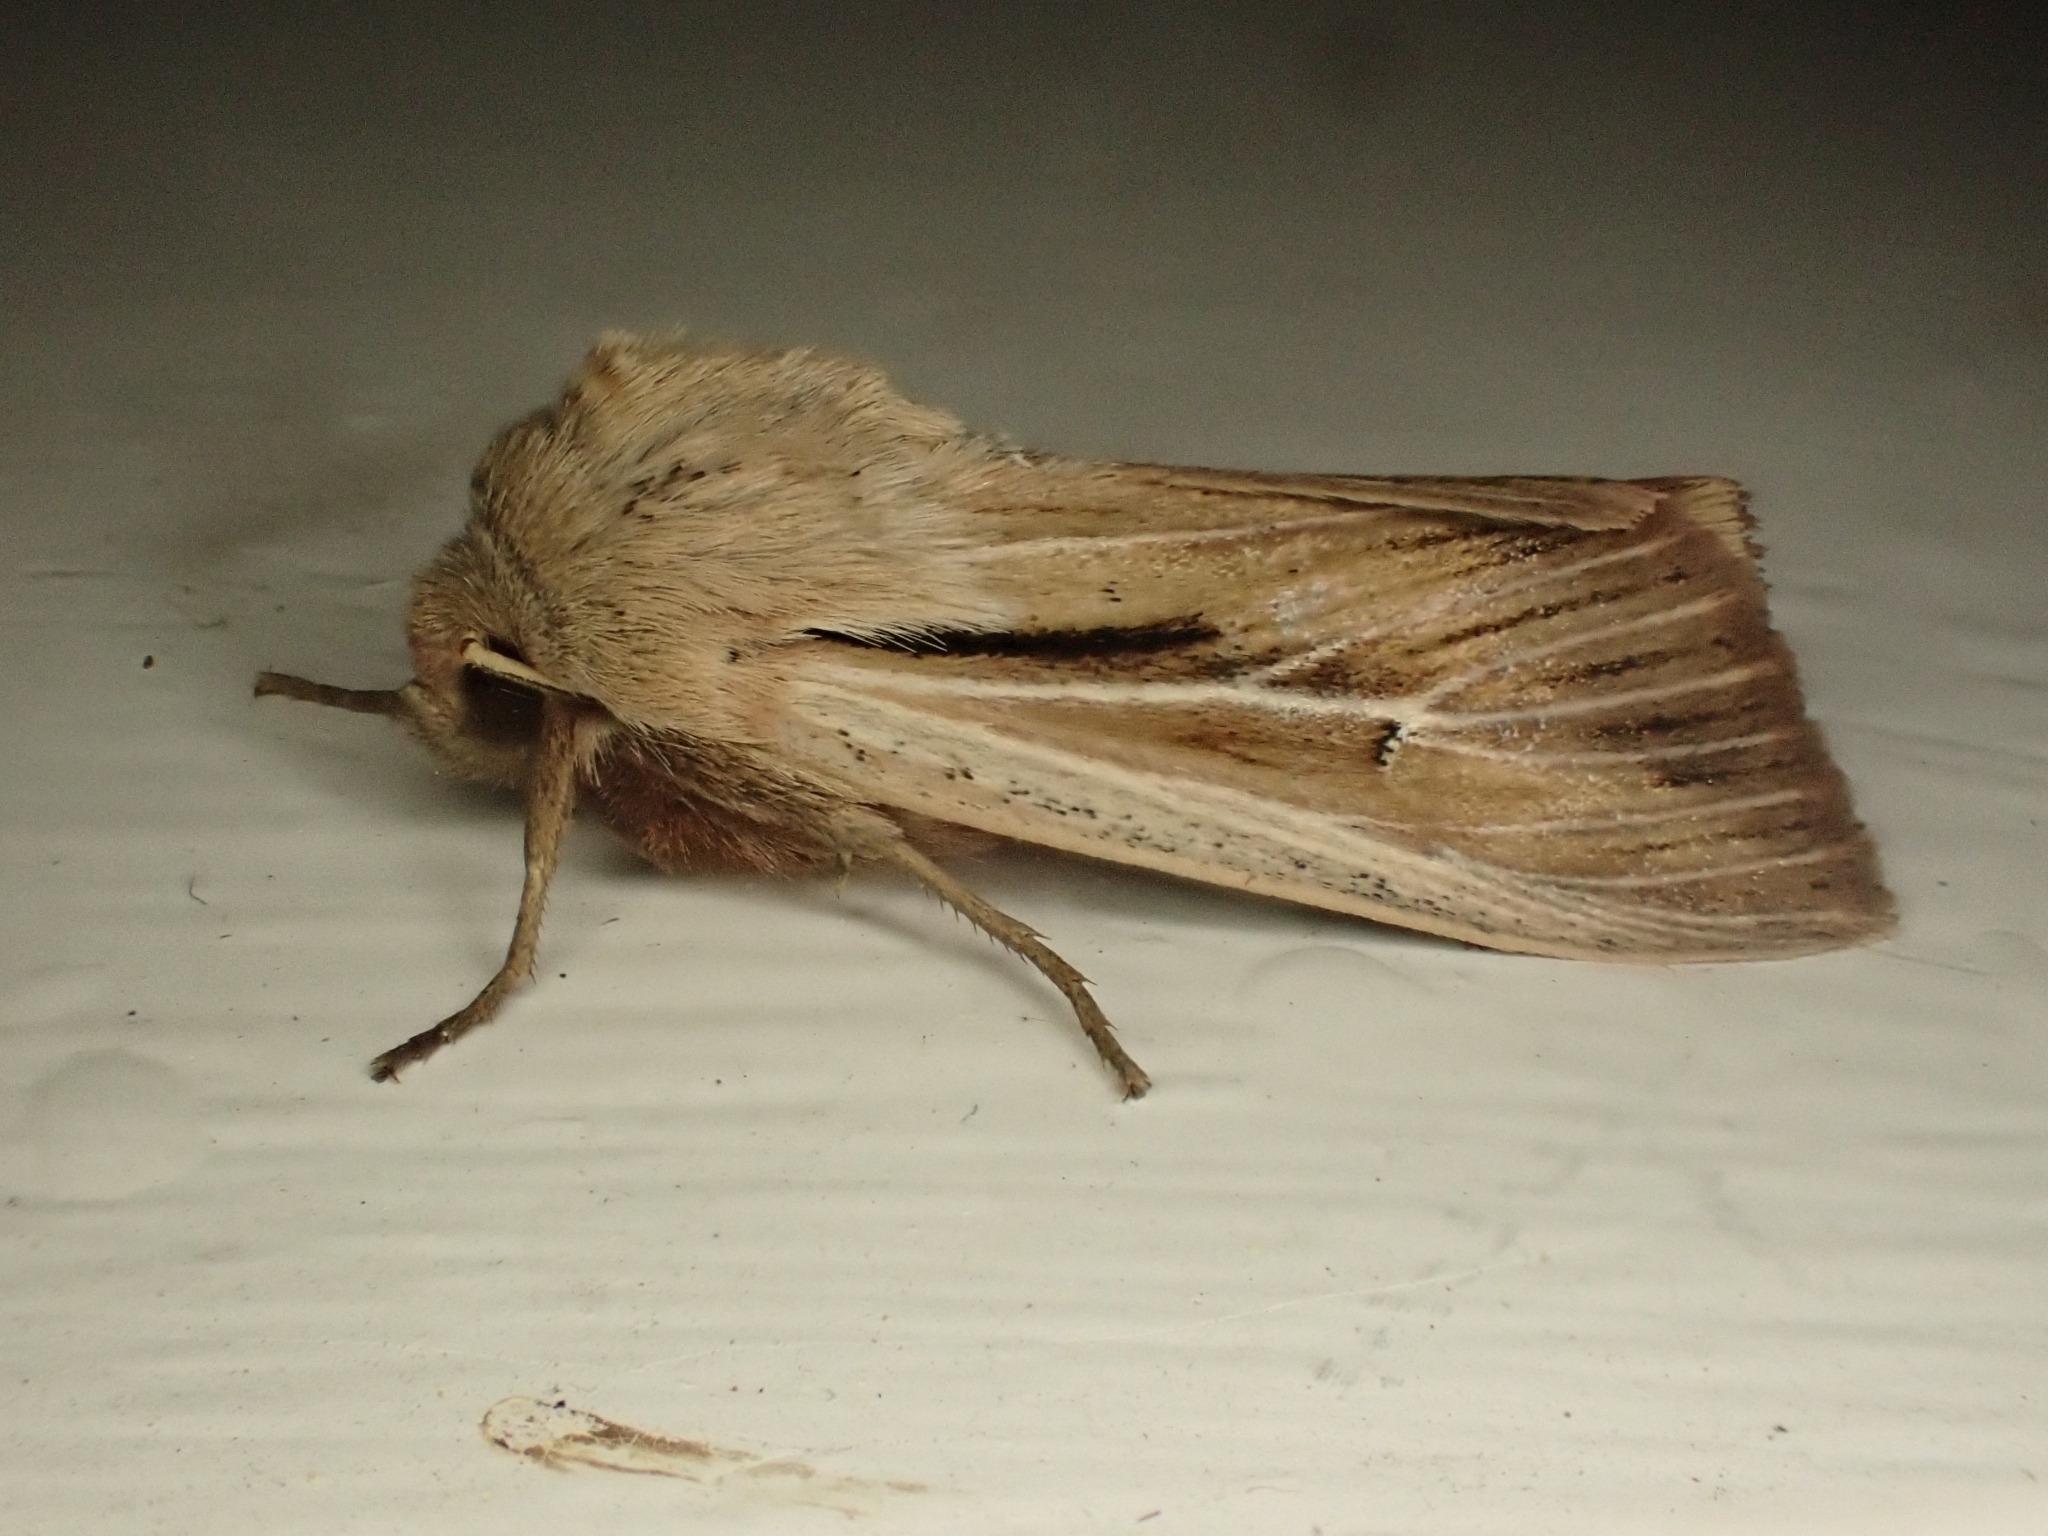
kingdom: Animalia
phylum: Arthropoda
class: Insecta
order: Lepidoptera
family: Noctuidae
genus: Leucania
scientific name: Leucania comma
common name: Shoulder-striped wainscot
